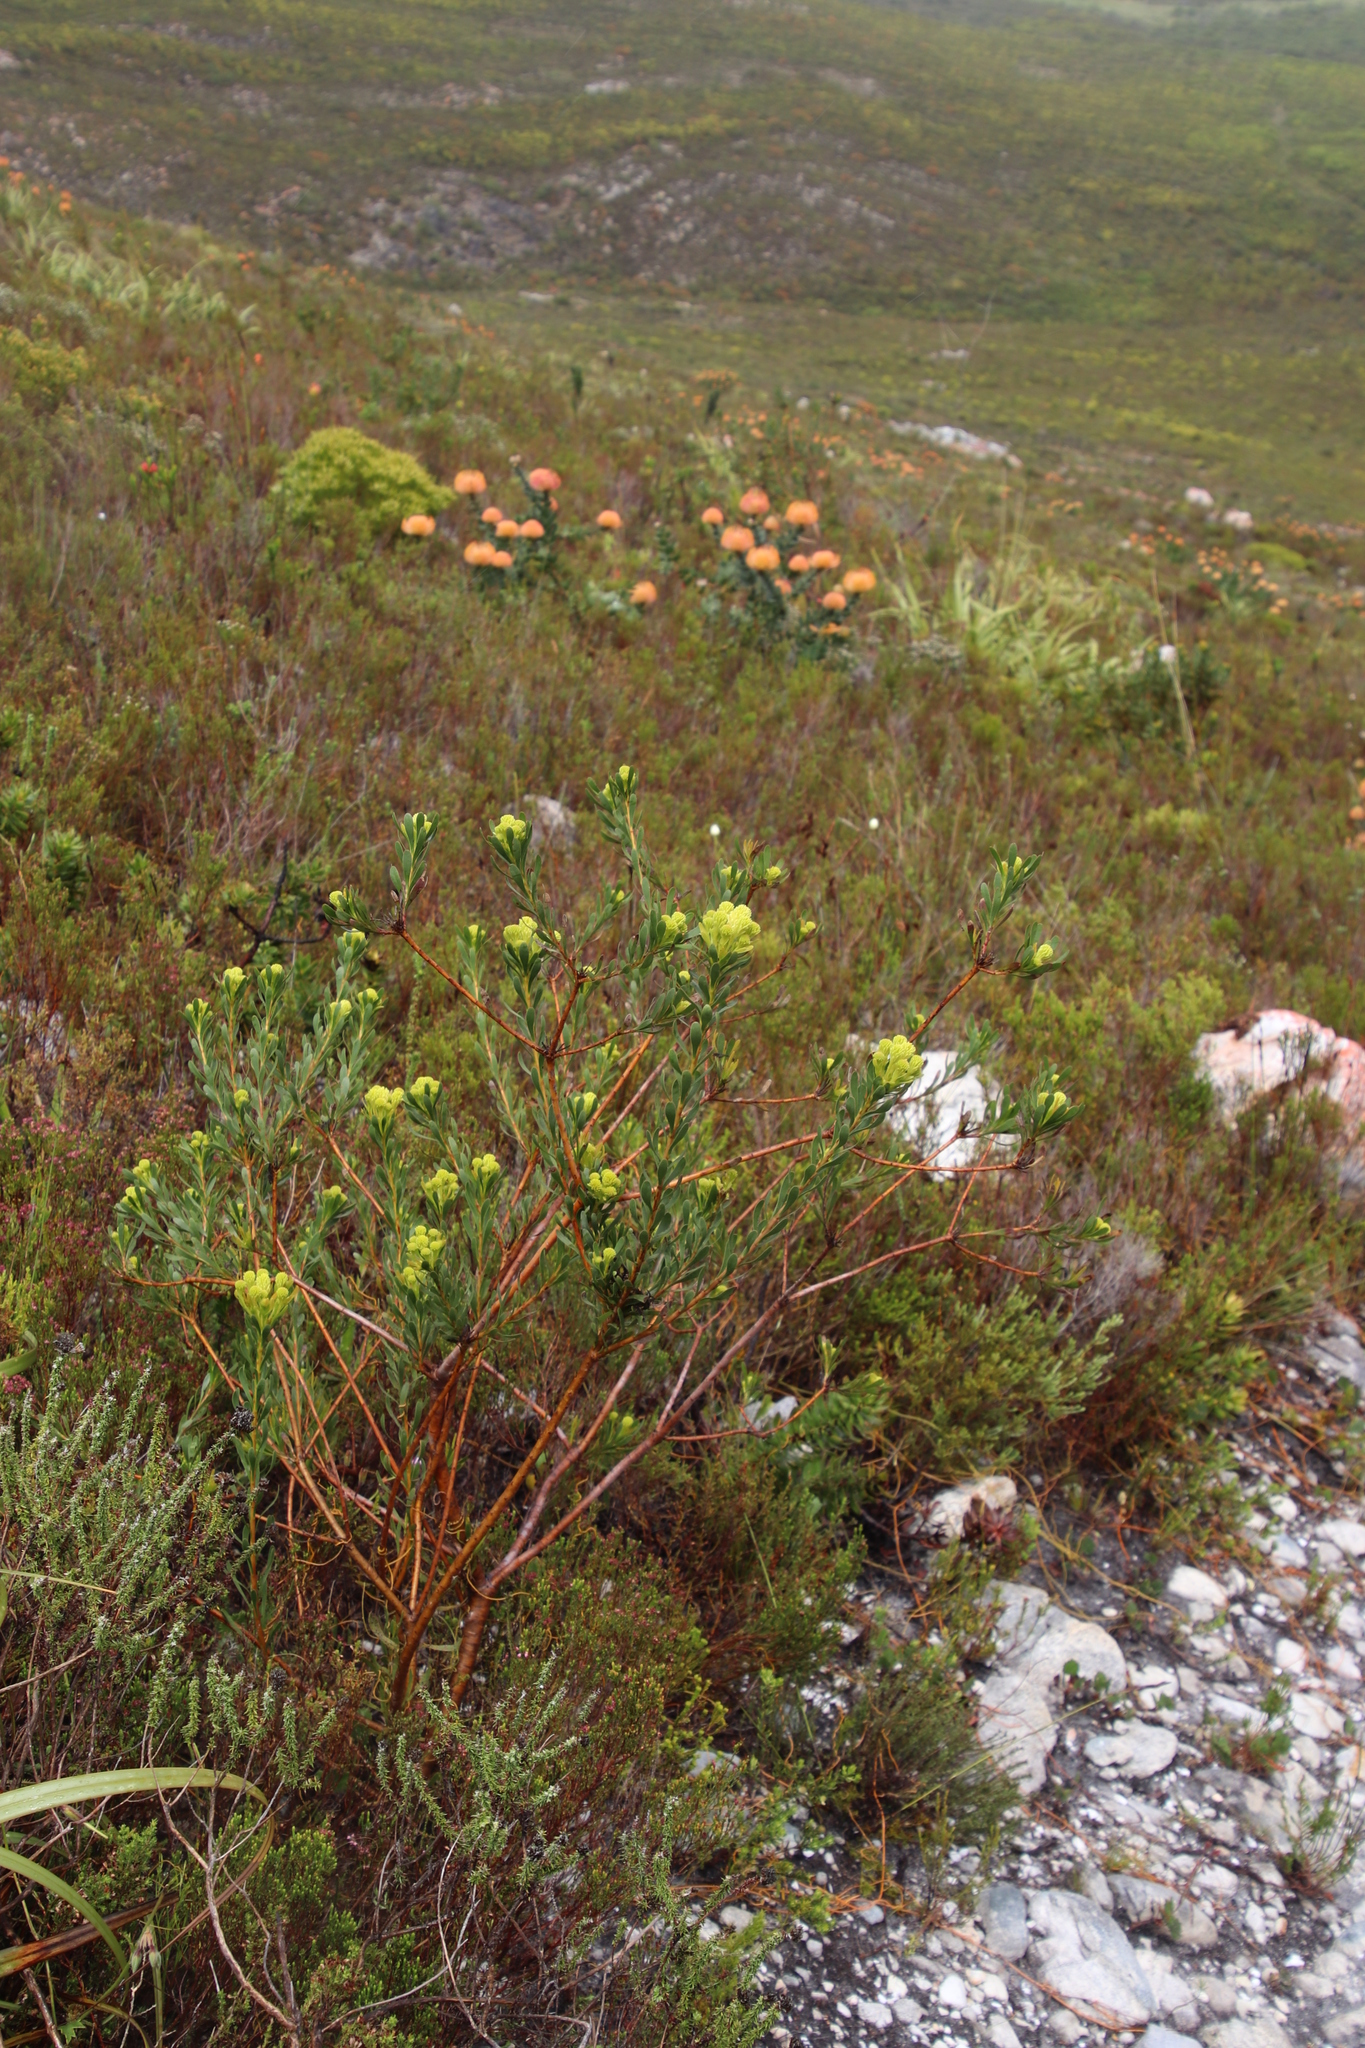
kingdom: Plantae
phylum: Tracheophyta
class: Magnoliopsida
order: Proteales
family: Proteaceae
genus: Aulax
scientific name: Aulax umbellata
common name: Broad-leaf featherbush
